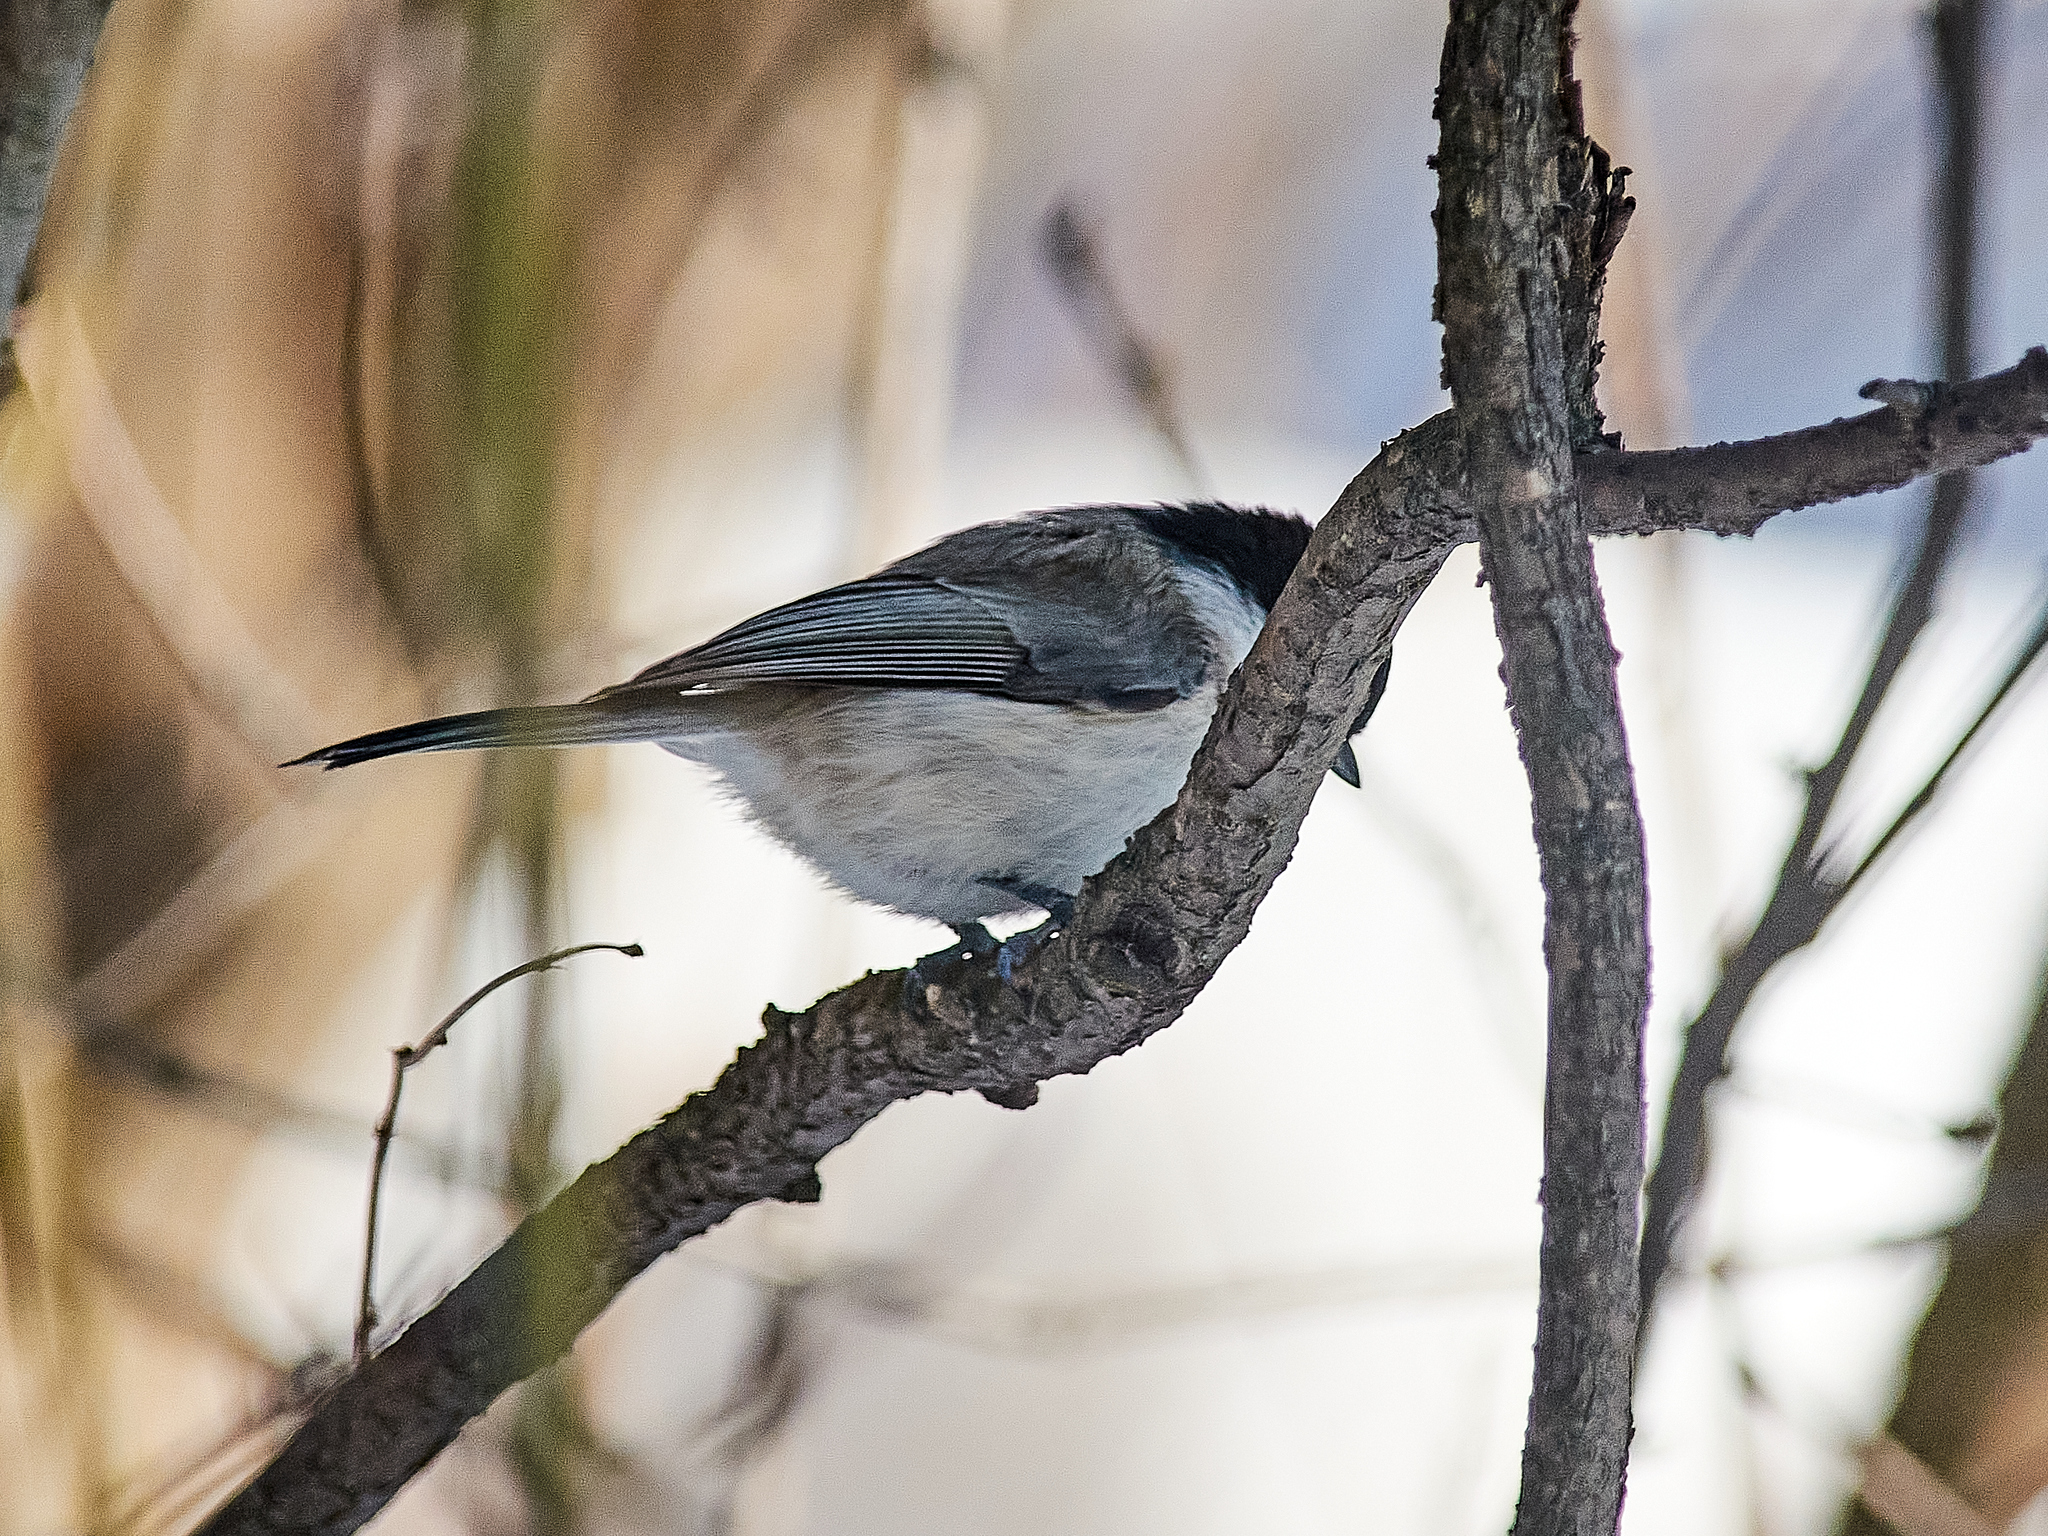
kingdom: Animalia
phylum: Chordata
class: Aves
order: Passeriformes
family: Paridae
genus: Poecile
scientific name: Poecile palustris
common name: Marsh tit
